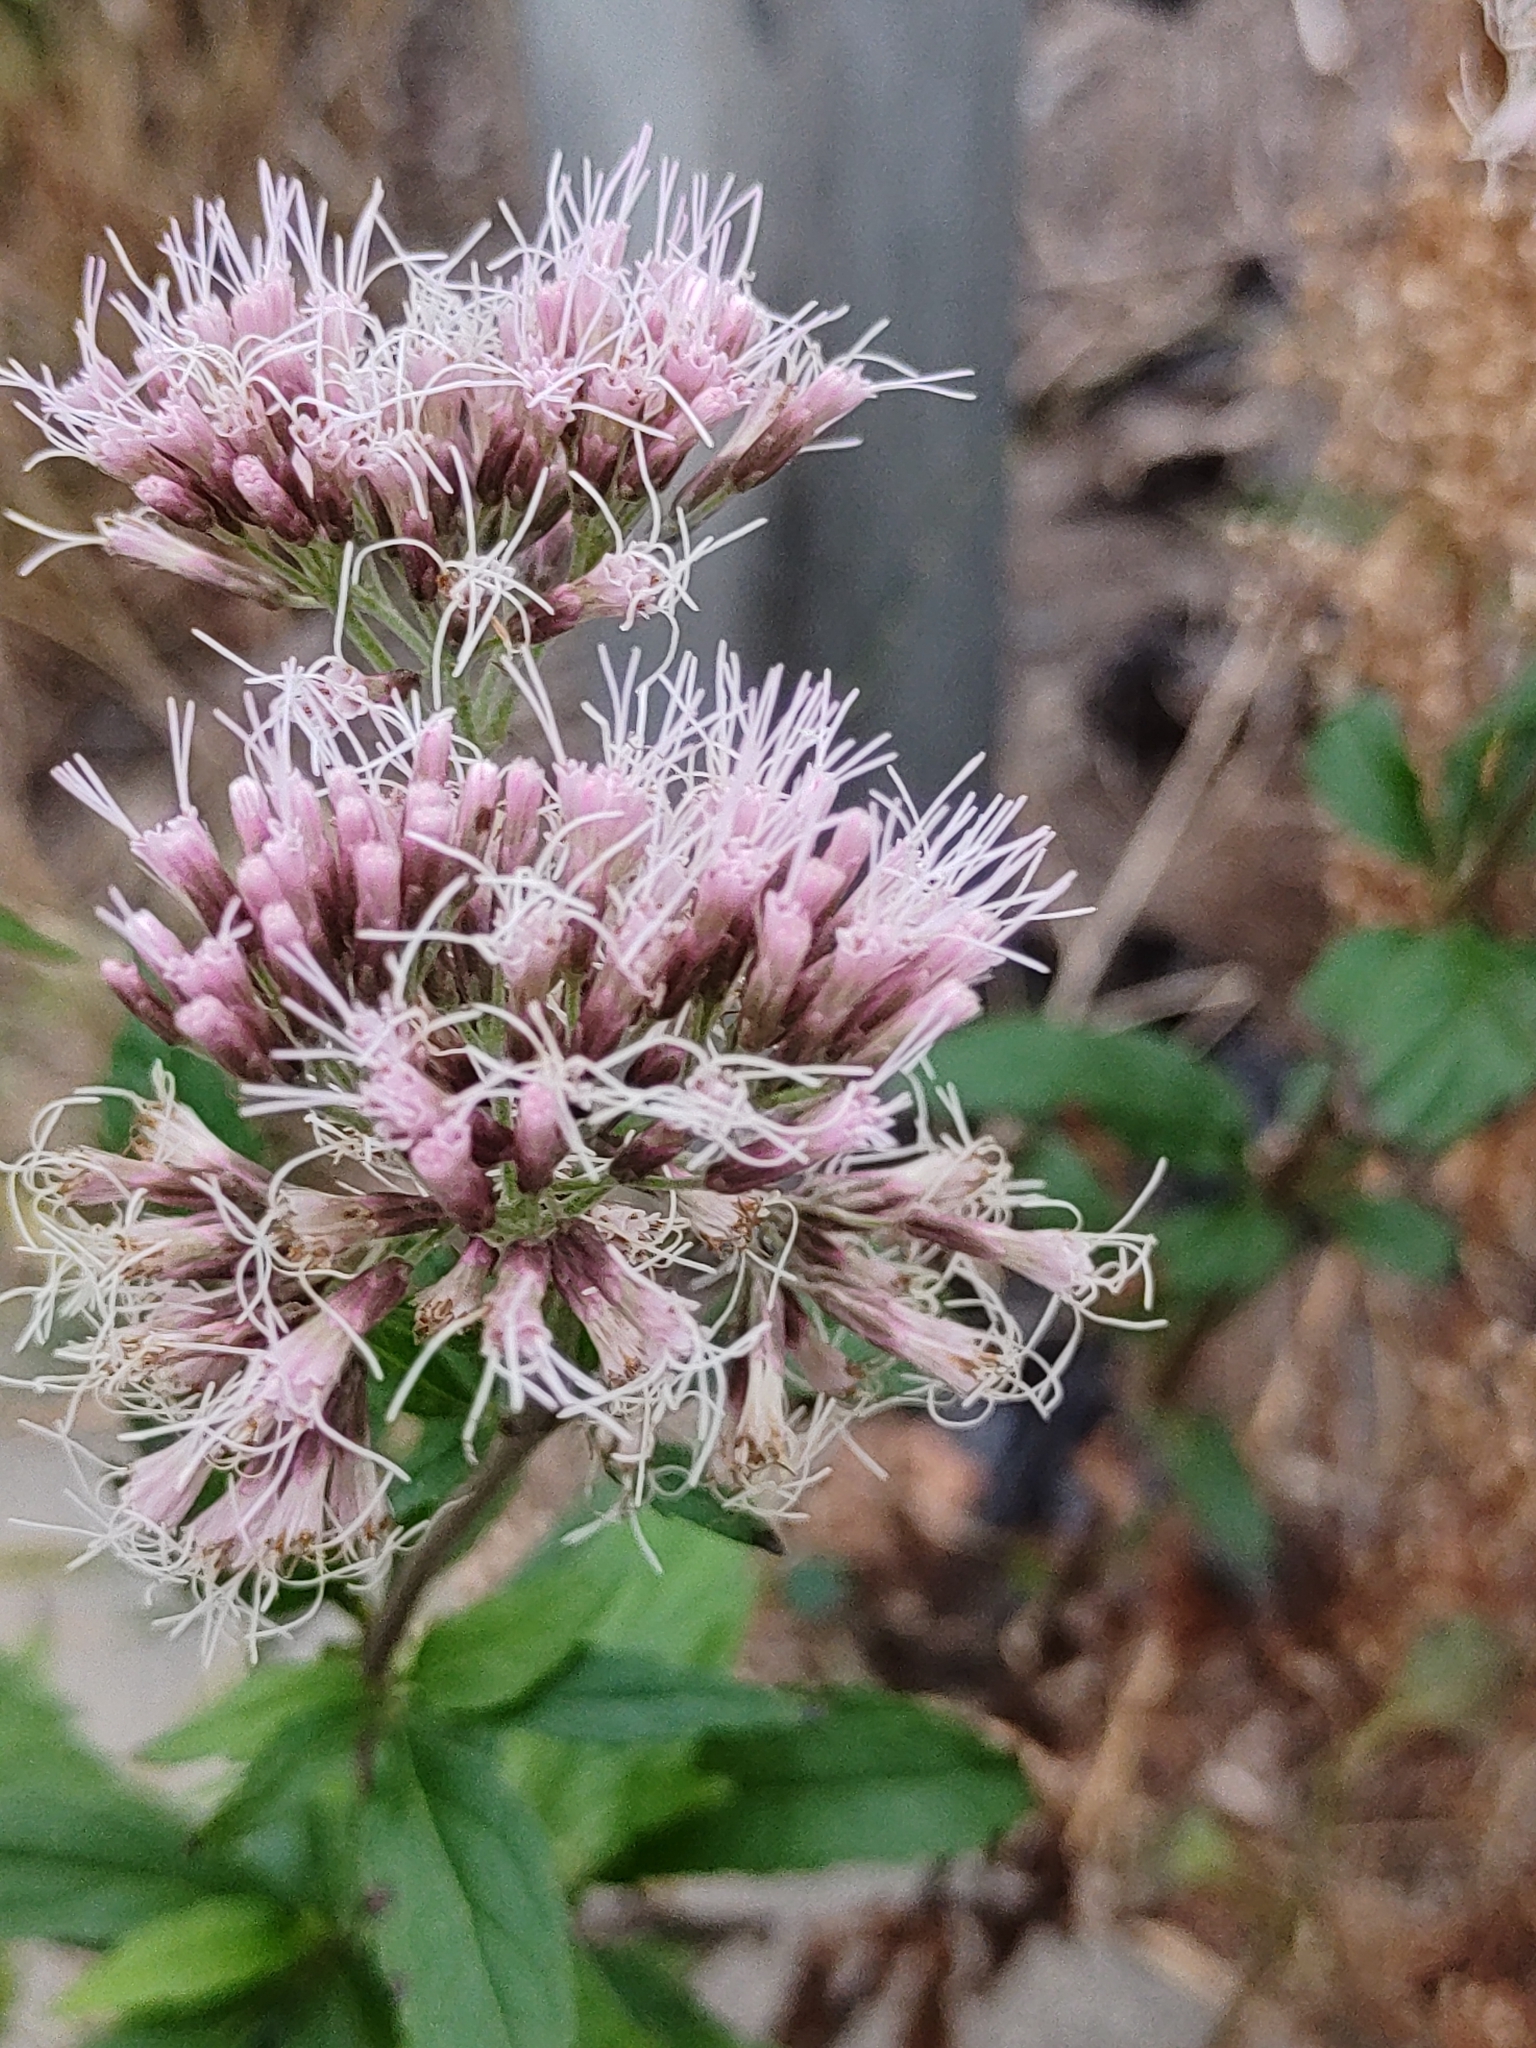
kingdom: Plantae
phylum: Tracheophyta
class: Magnoliopsida
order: Asterales
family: Asteraceae
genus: Eupatorium
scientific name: Eupatorium cannabinum
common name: Hemp-agrimony
